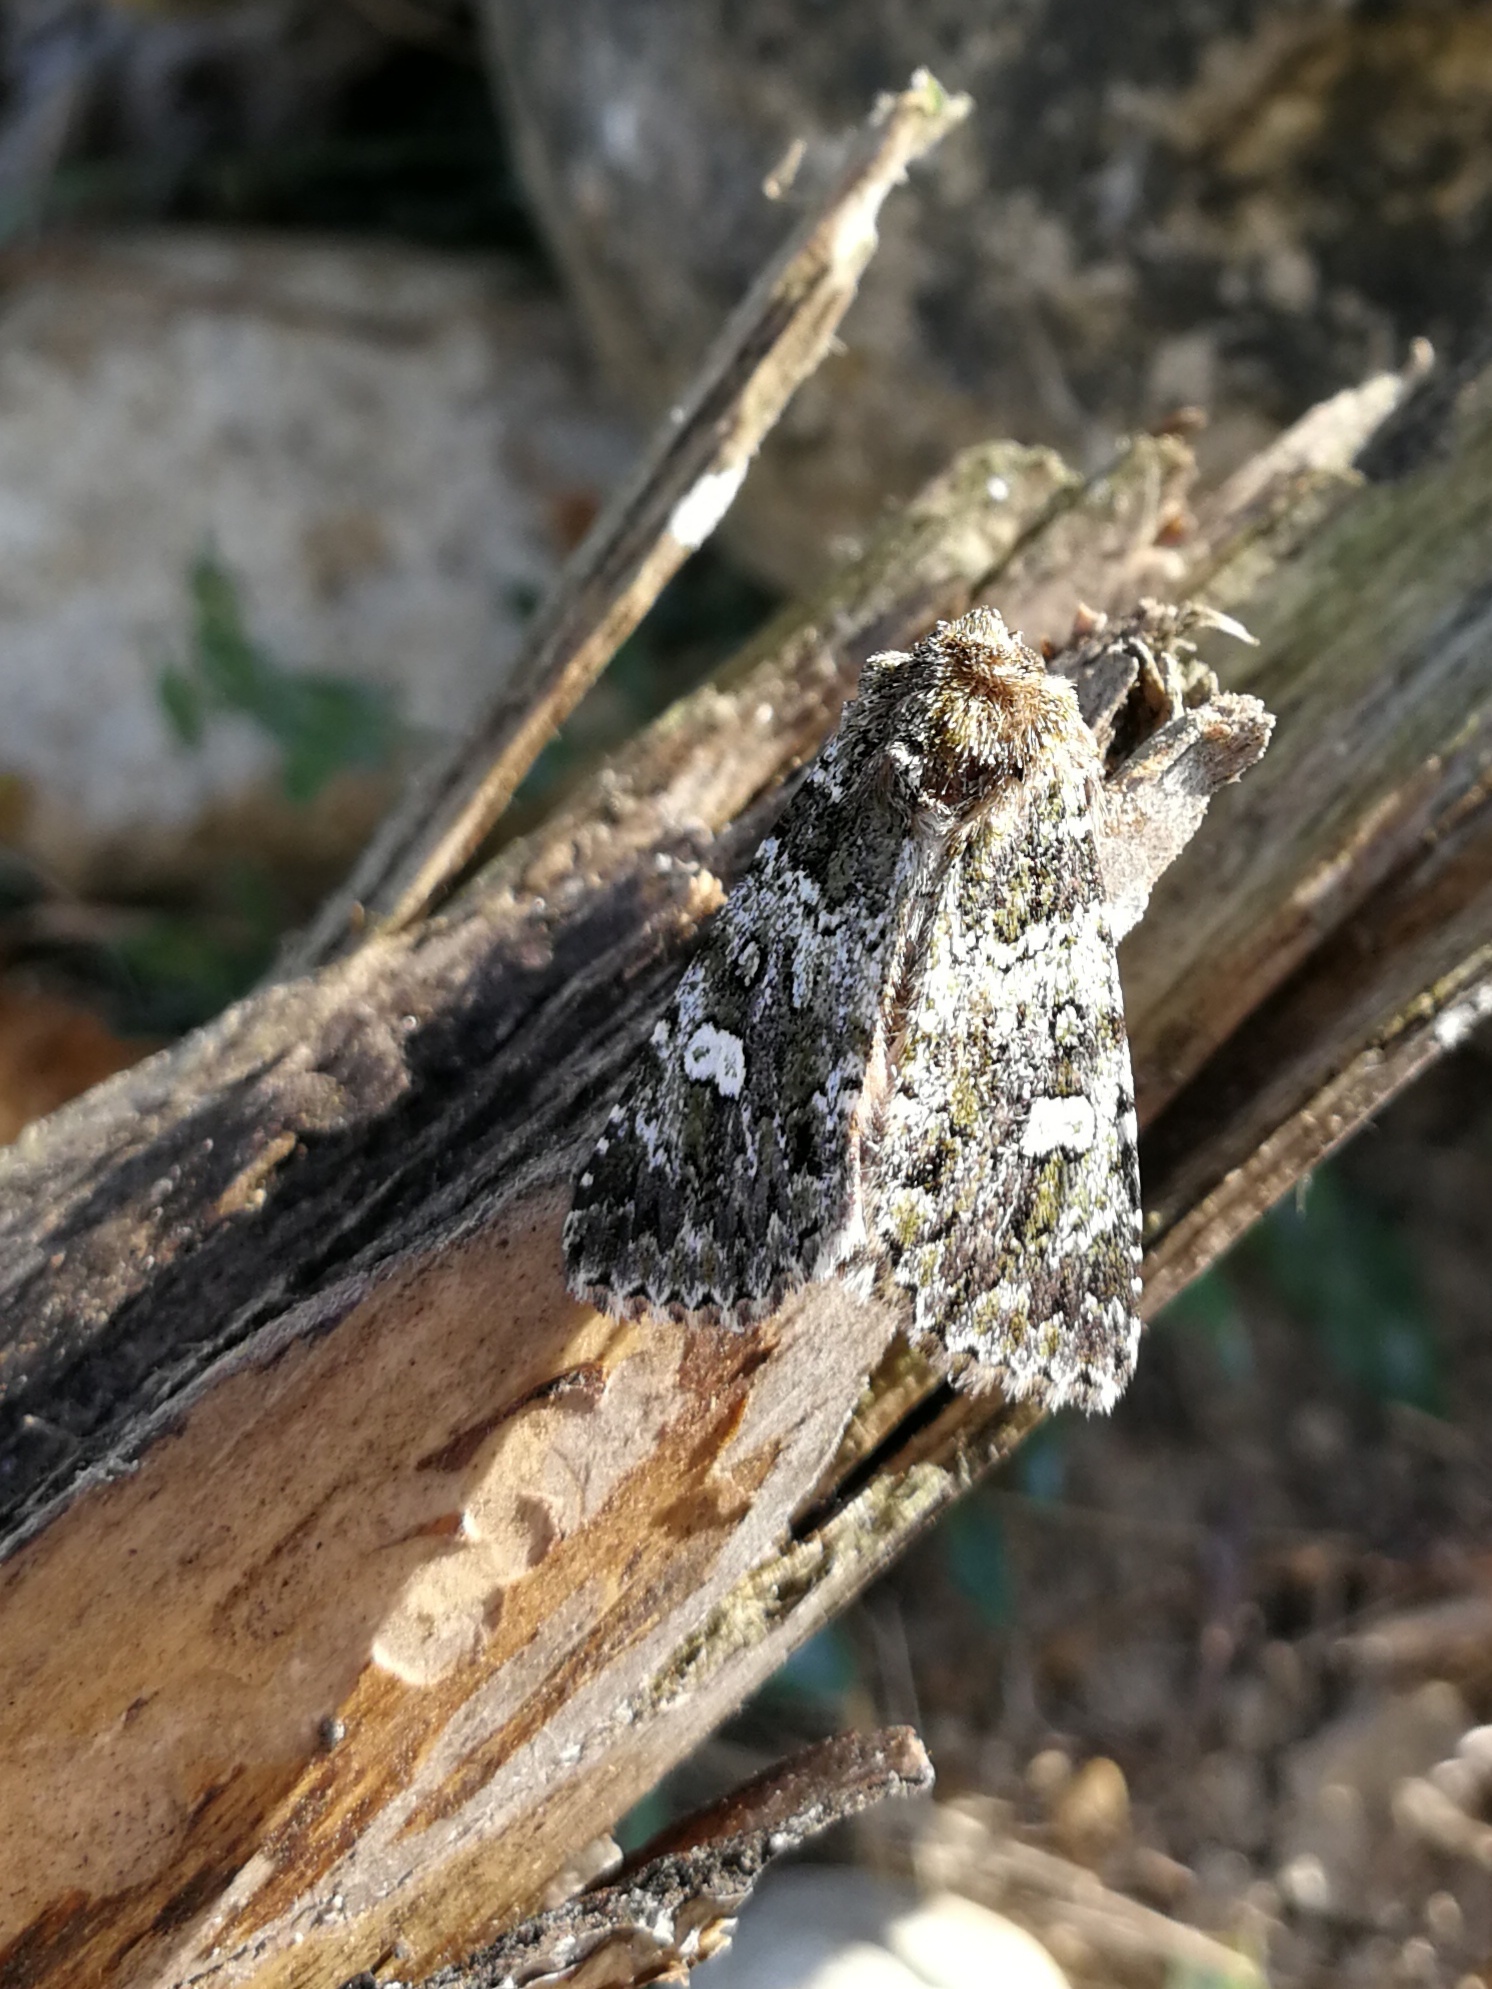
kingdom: Animalia
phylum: Arthropoda
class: Insecta
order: Lepidoptera
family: Noctuidae
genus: Olivenebula
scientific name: Olivenebula xanthochloris
